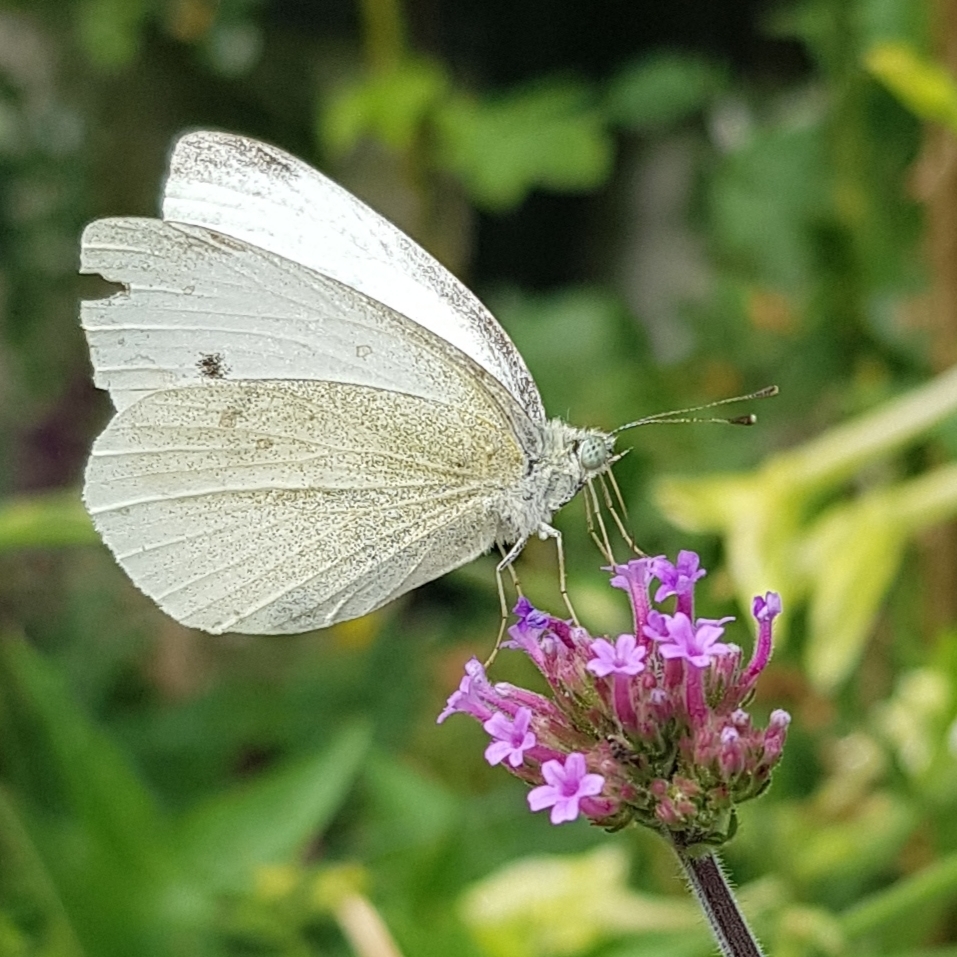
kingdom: Animalia
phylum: Arthropoda
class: Insecta
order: Lepidoptera
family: Pieridae
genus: Pieris
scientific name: Pieris rapae
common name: Small white
